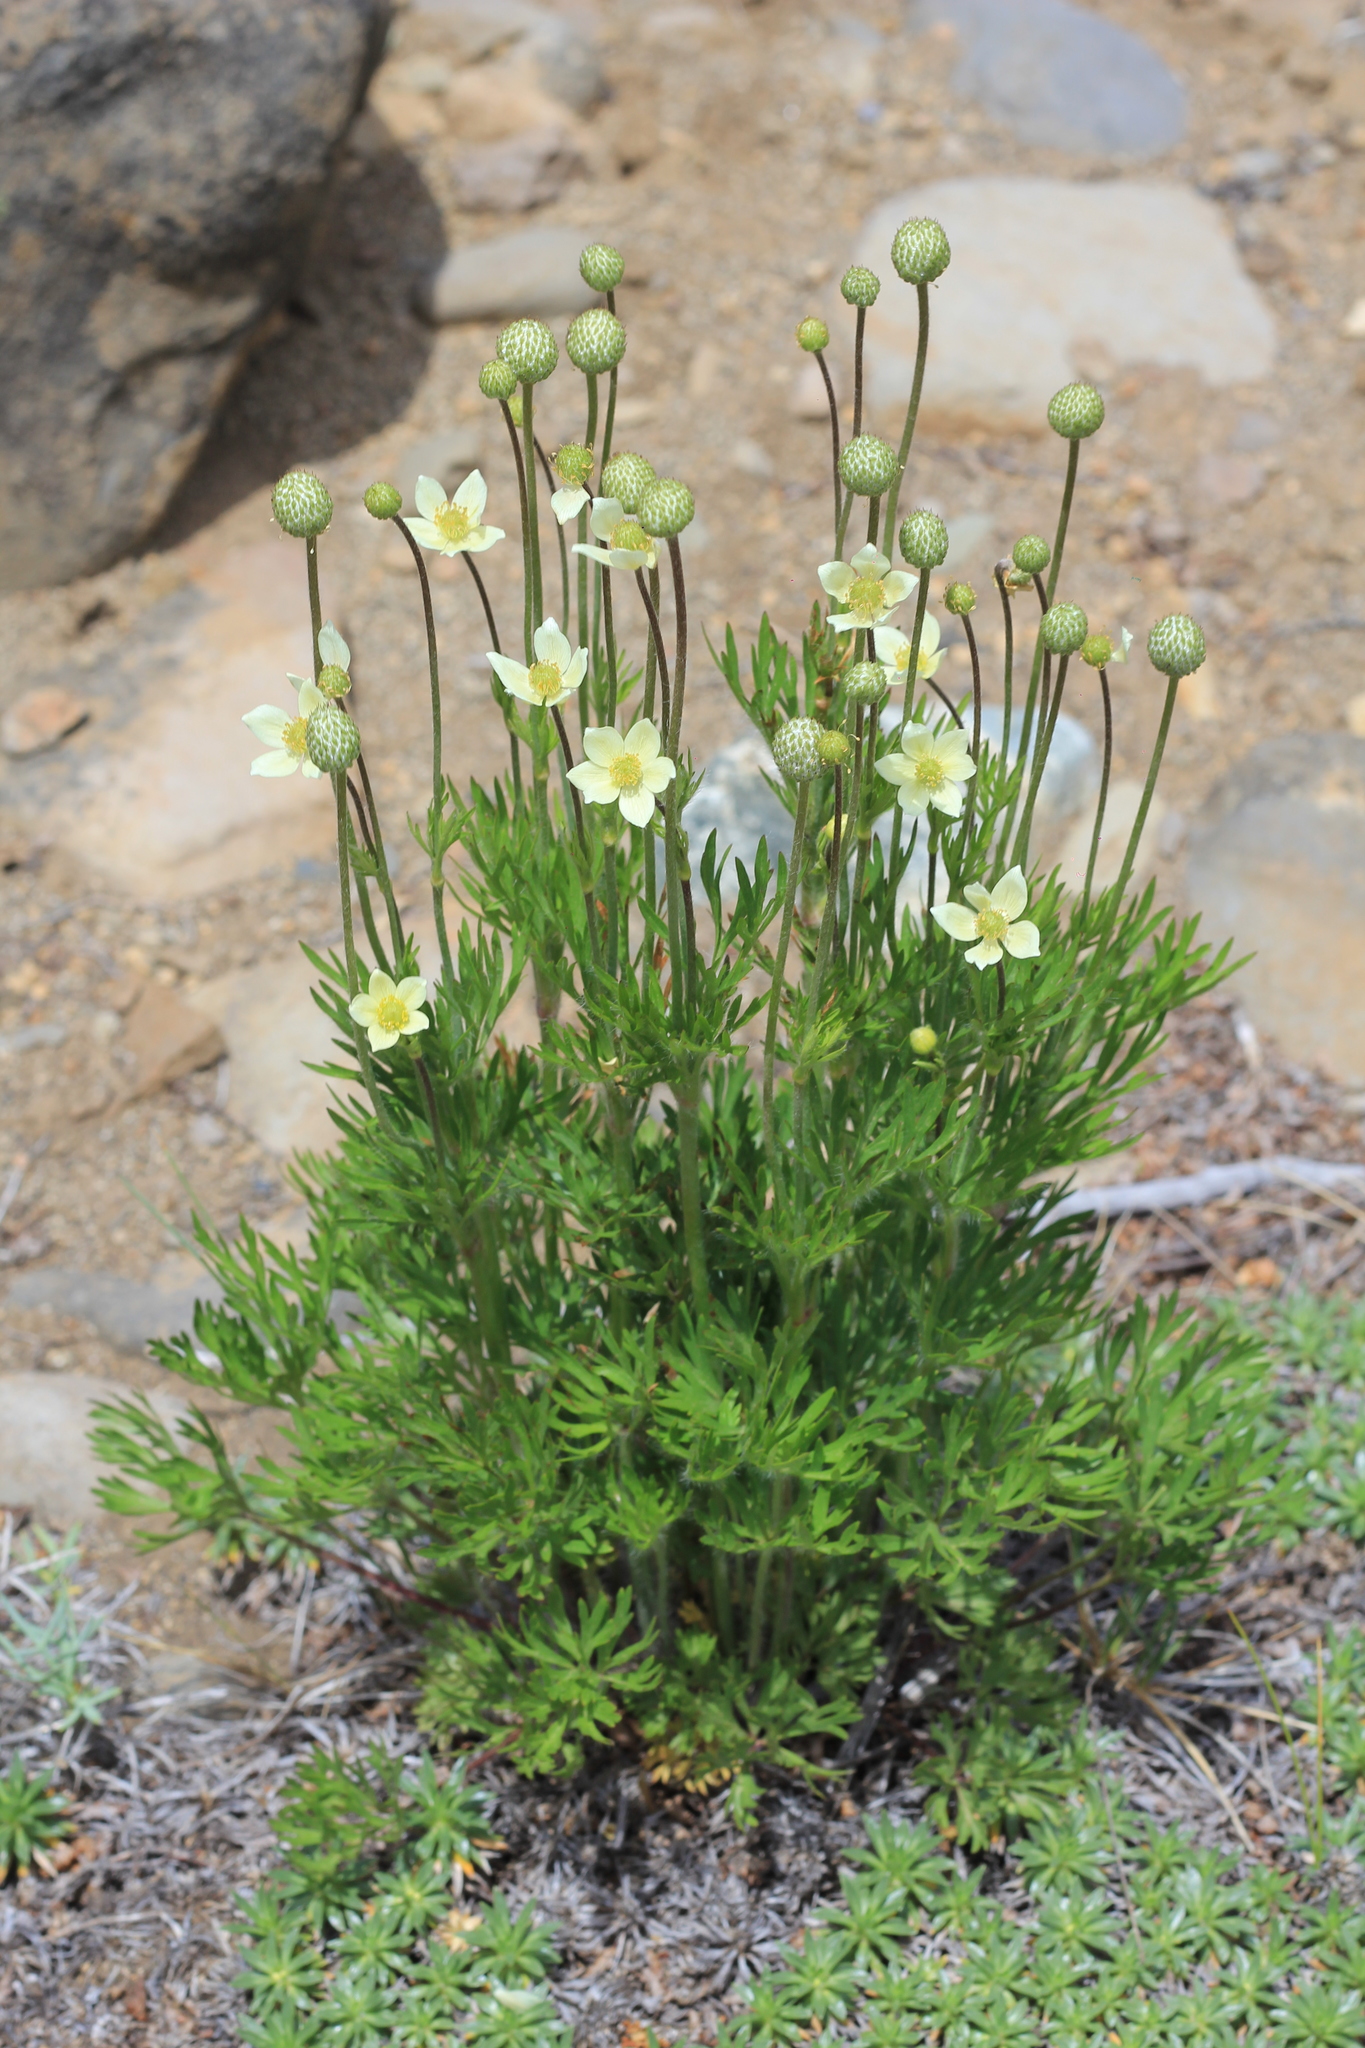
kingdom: Plantae
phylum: Tracheophyta
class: Magnoliopsida
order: Ranunculales
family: Ranunculaceae
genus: Anemone
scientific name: Anemone multifida
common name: Bird's-foot anemone
